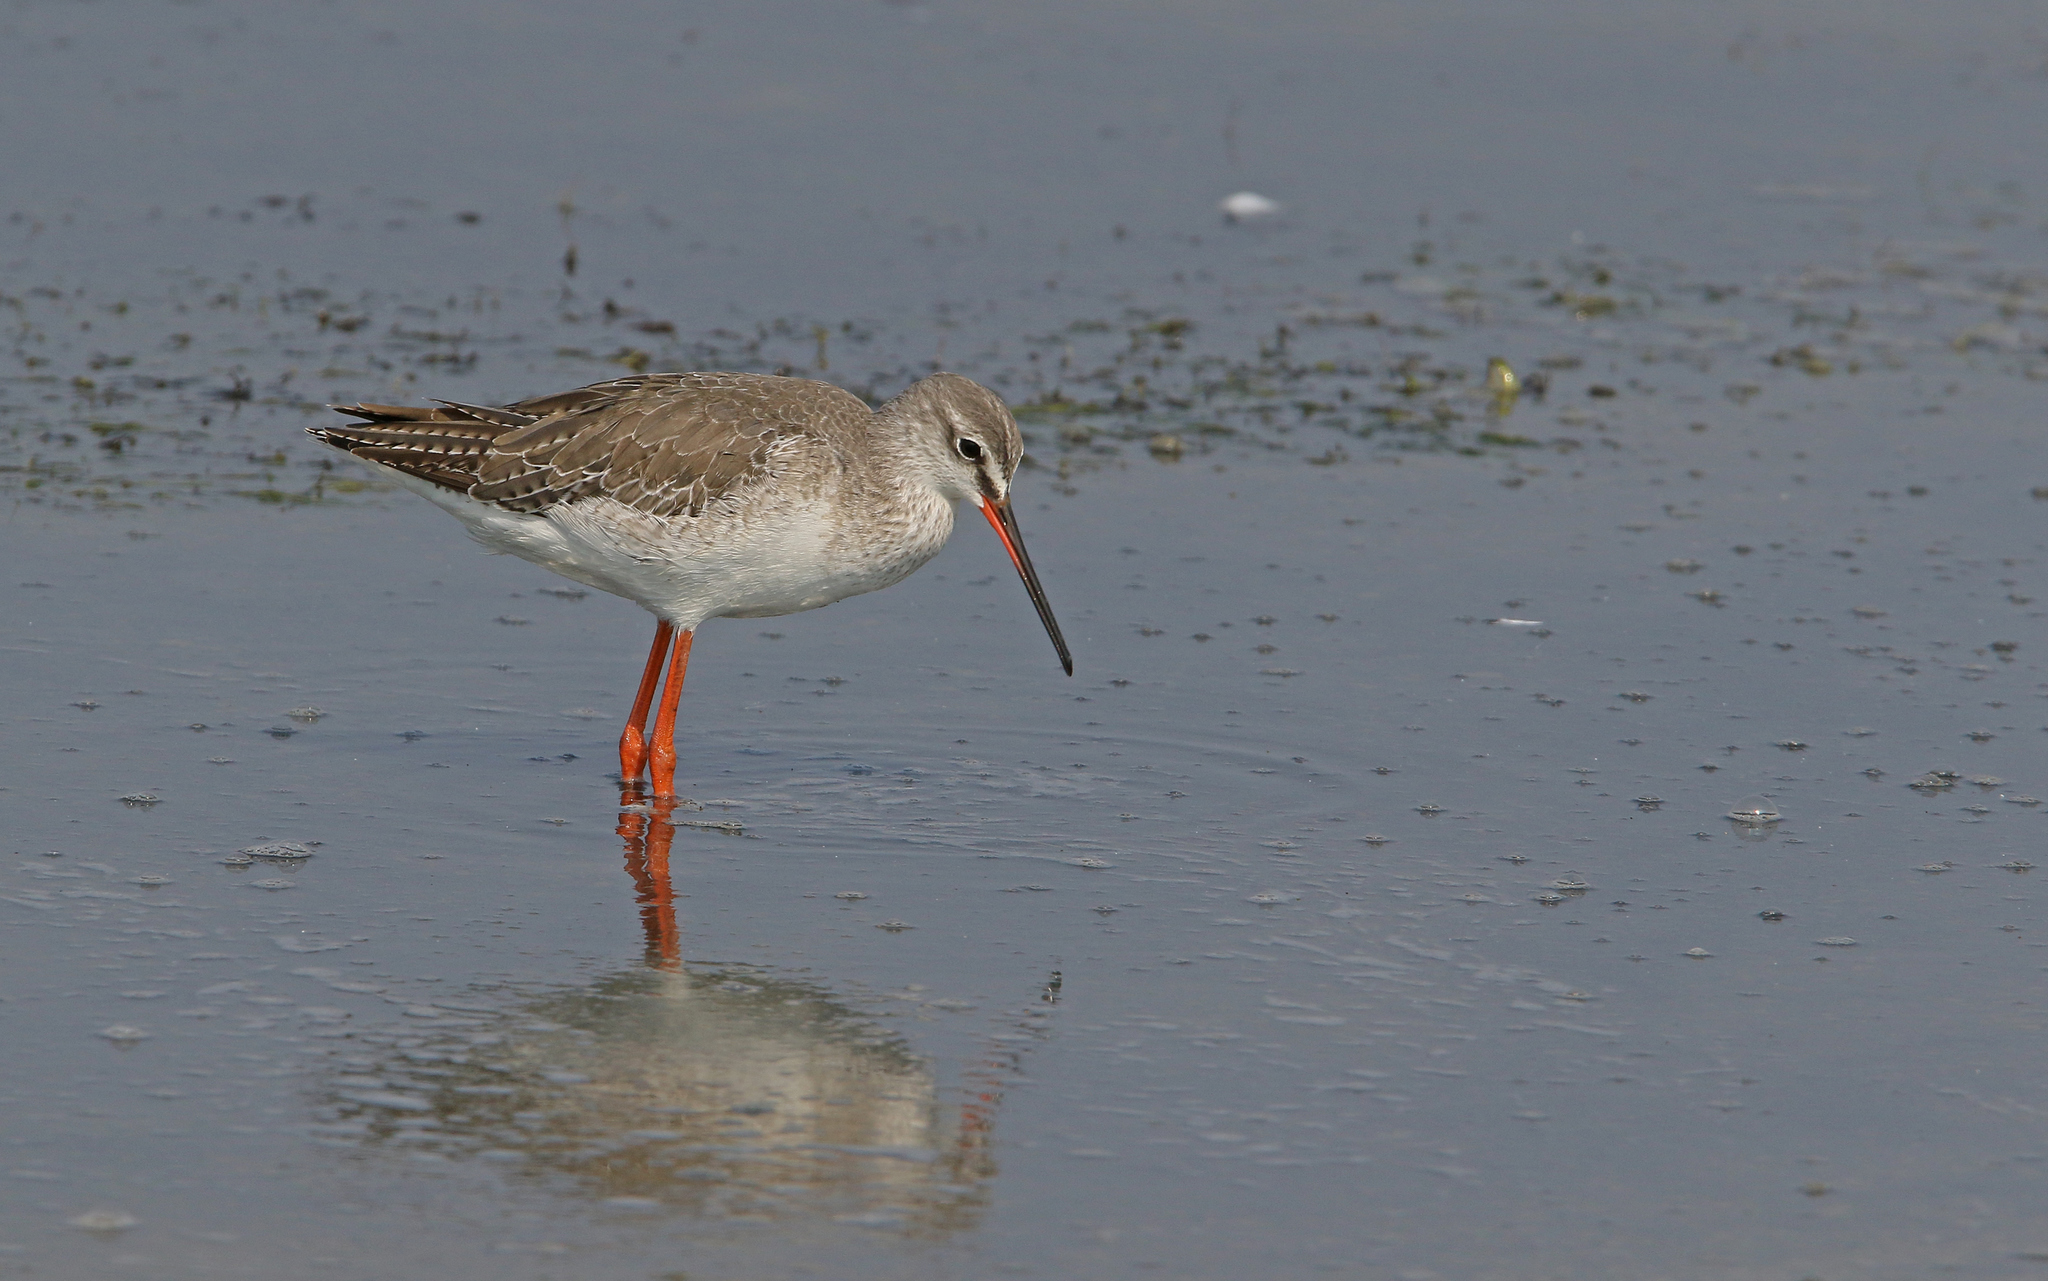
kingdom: Animalia
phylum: Chordata
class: Aves
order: Charadriiformes
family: Scolopacidae
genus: Tringa
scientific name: Tringa erythropus
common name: Spotted redshank
